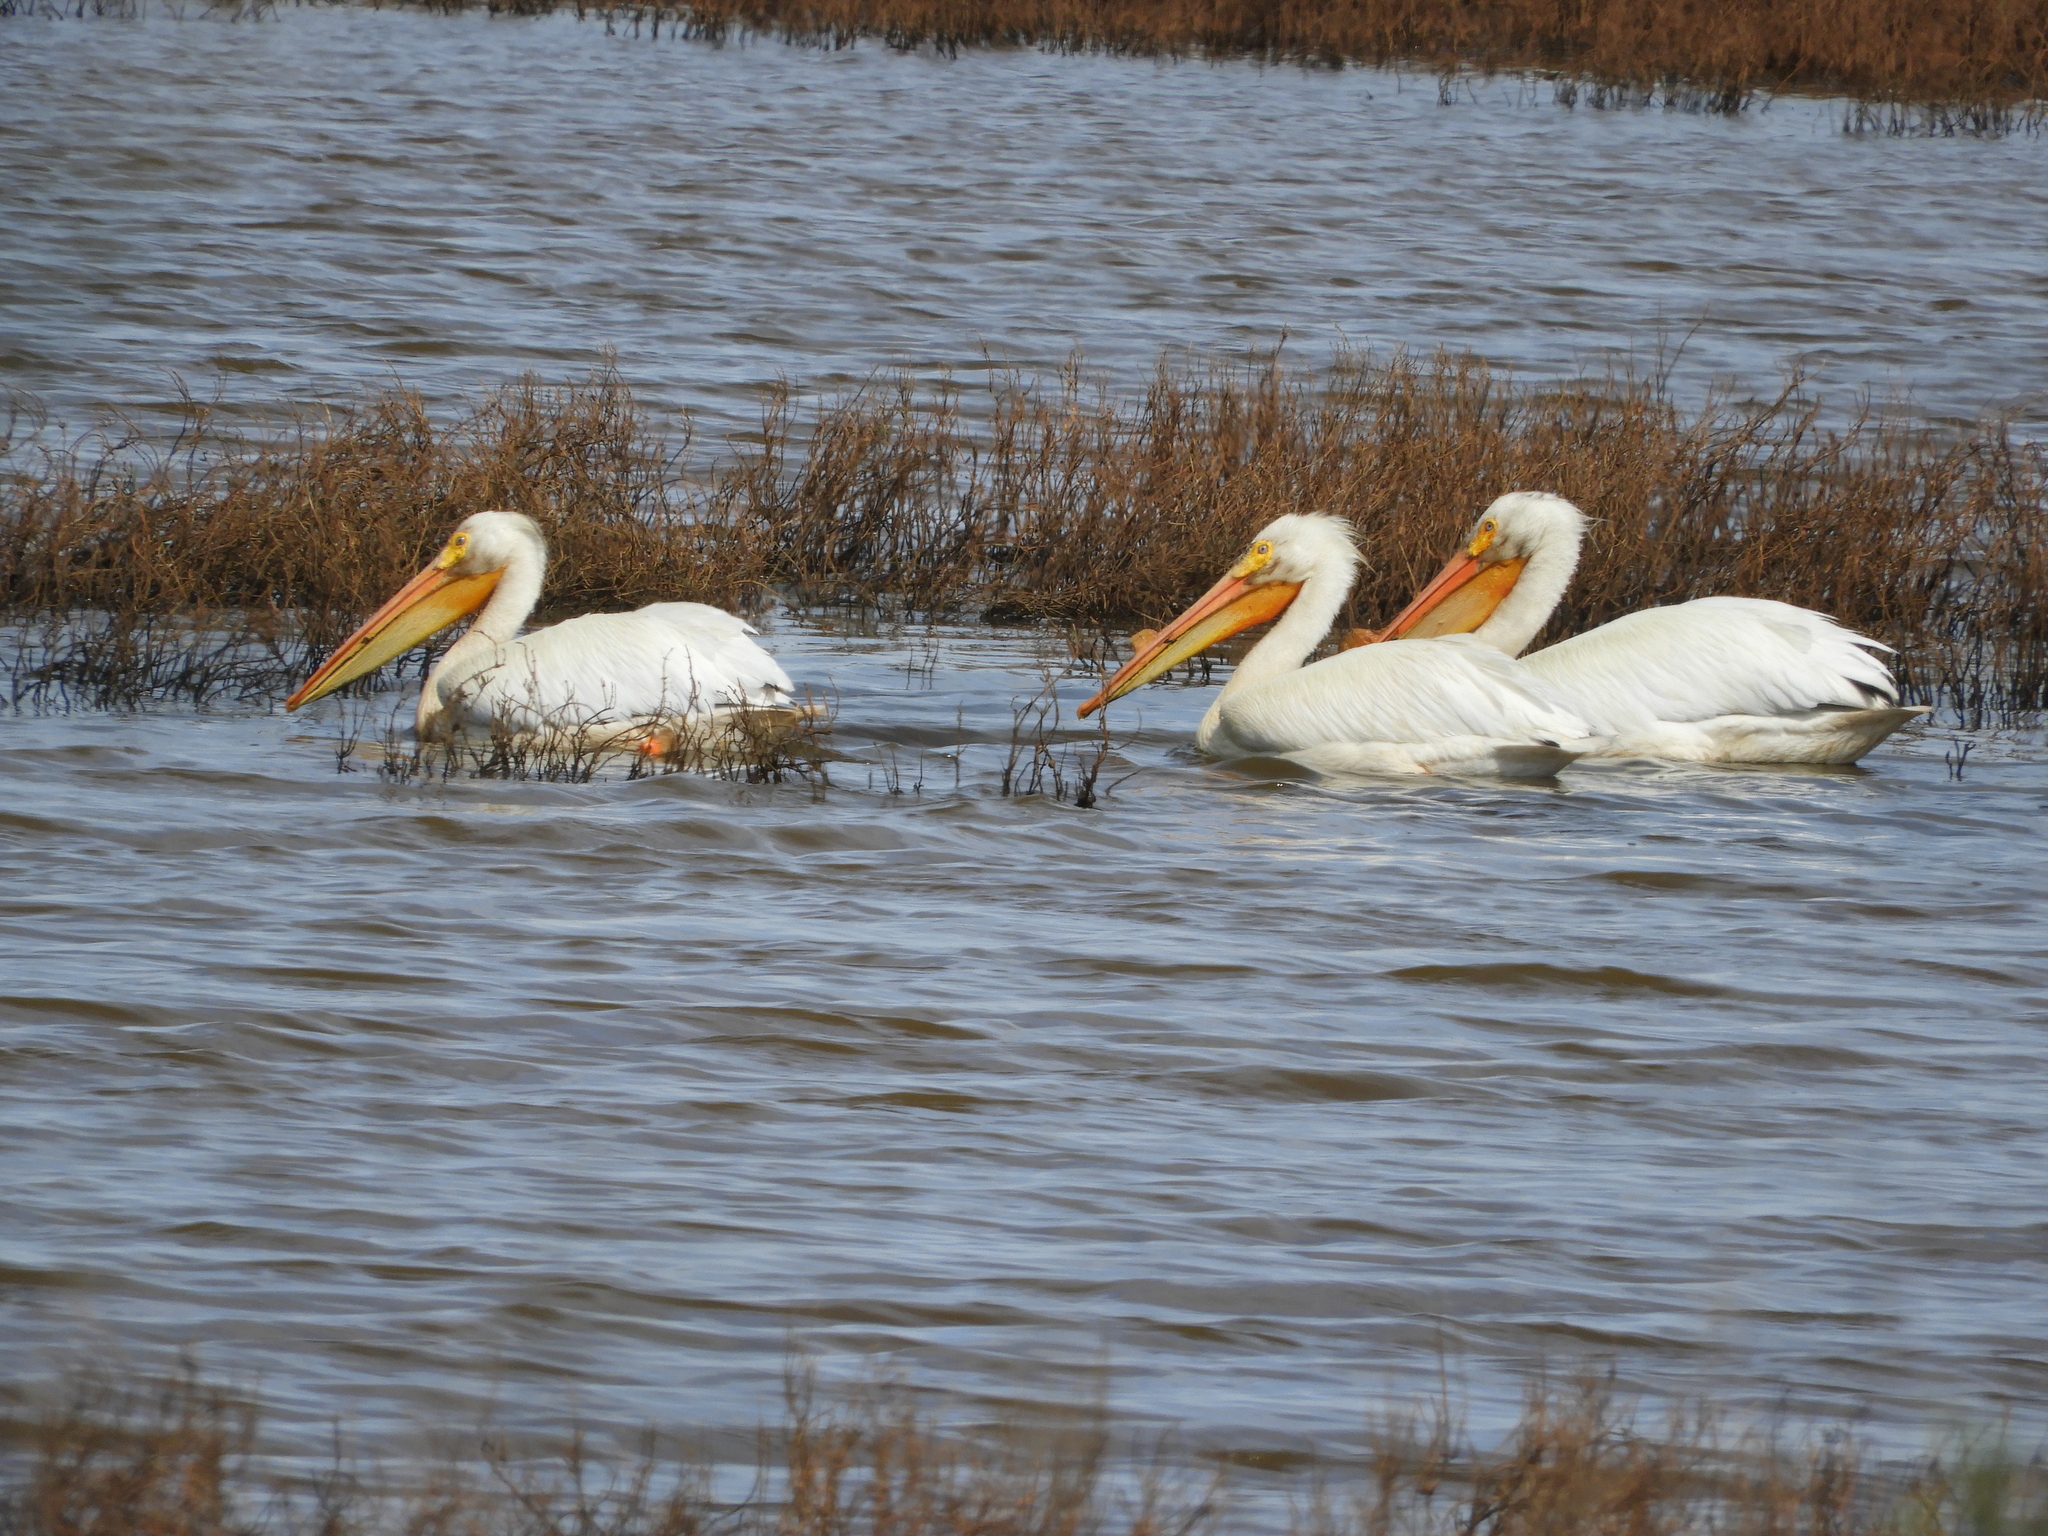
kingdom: Animalia
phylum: Chordata
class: Aves
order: Pelecaniformes
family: Pelecanidae
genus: Pelecanus
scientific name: Pelecanus erythrorhynchos
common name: American white pelican
